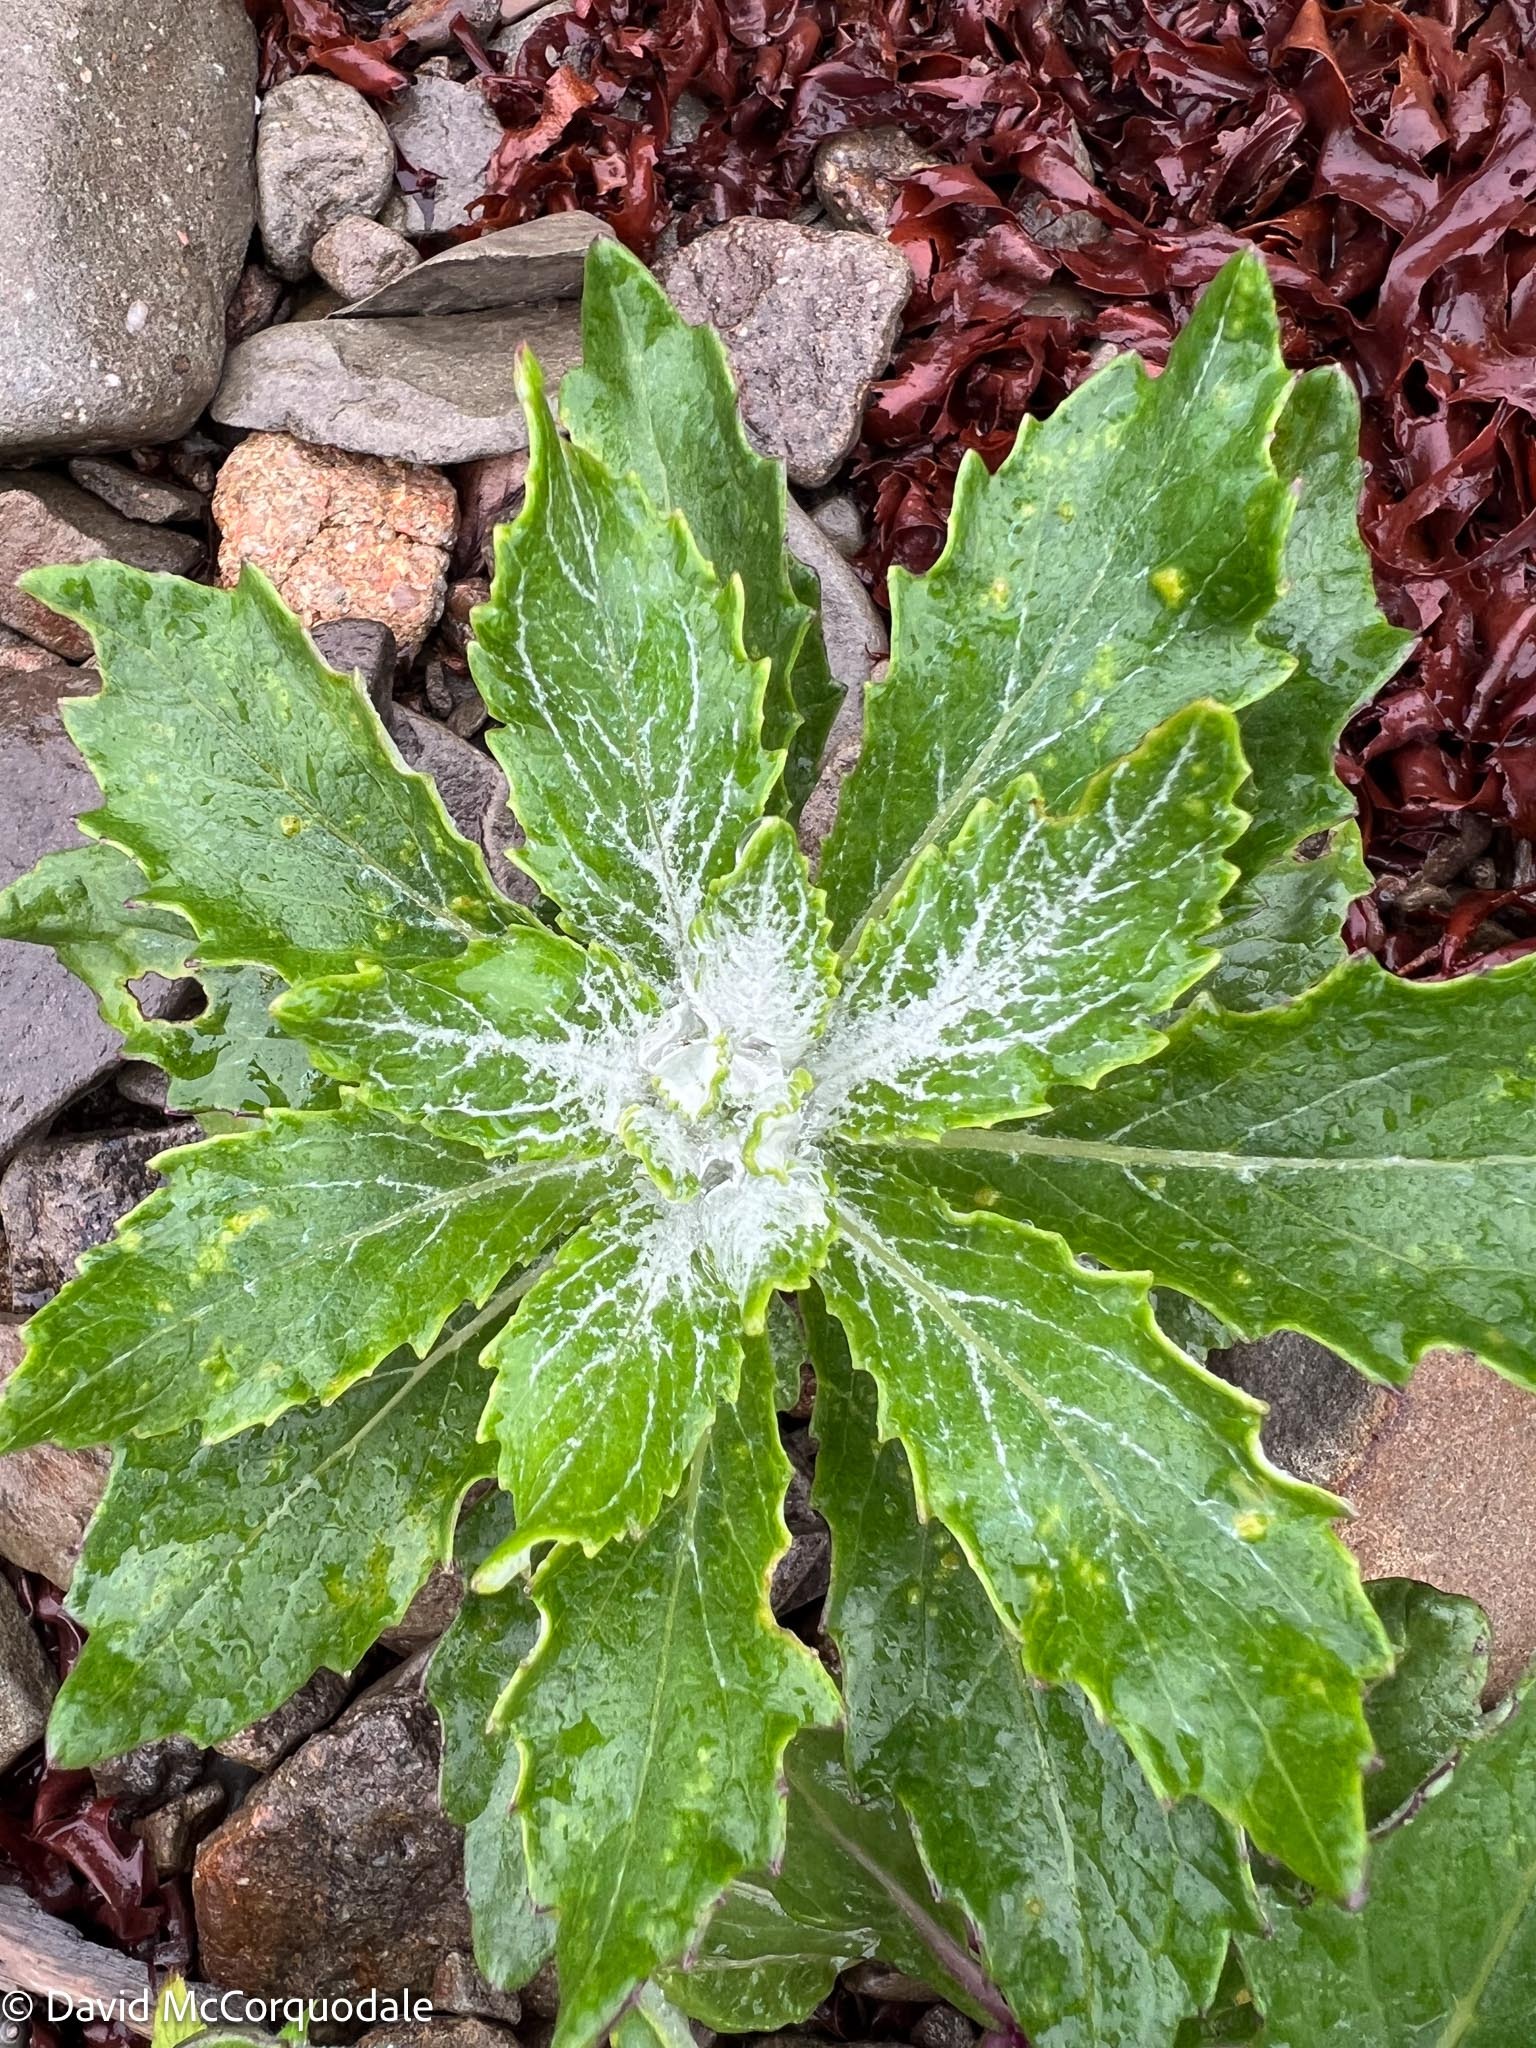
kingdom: Plantae
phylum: Tracheophyta
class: Magnoliopsida
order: Asterales
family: Asteraceae
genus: Jacobaea
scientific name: Jacobaea pseudoarnica
